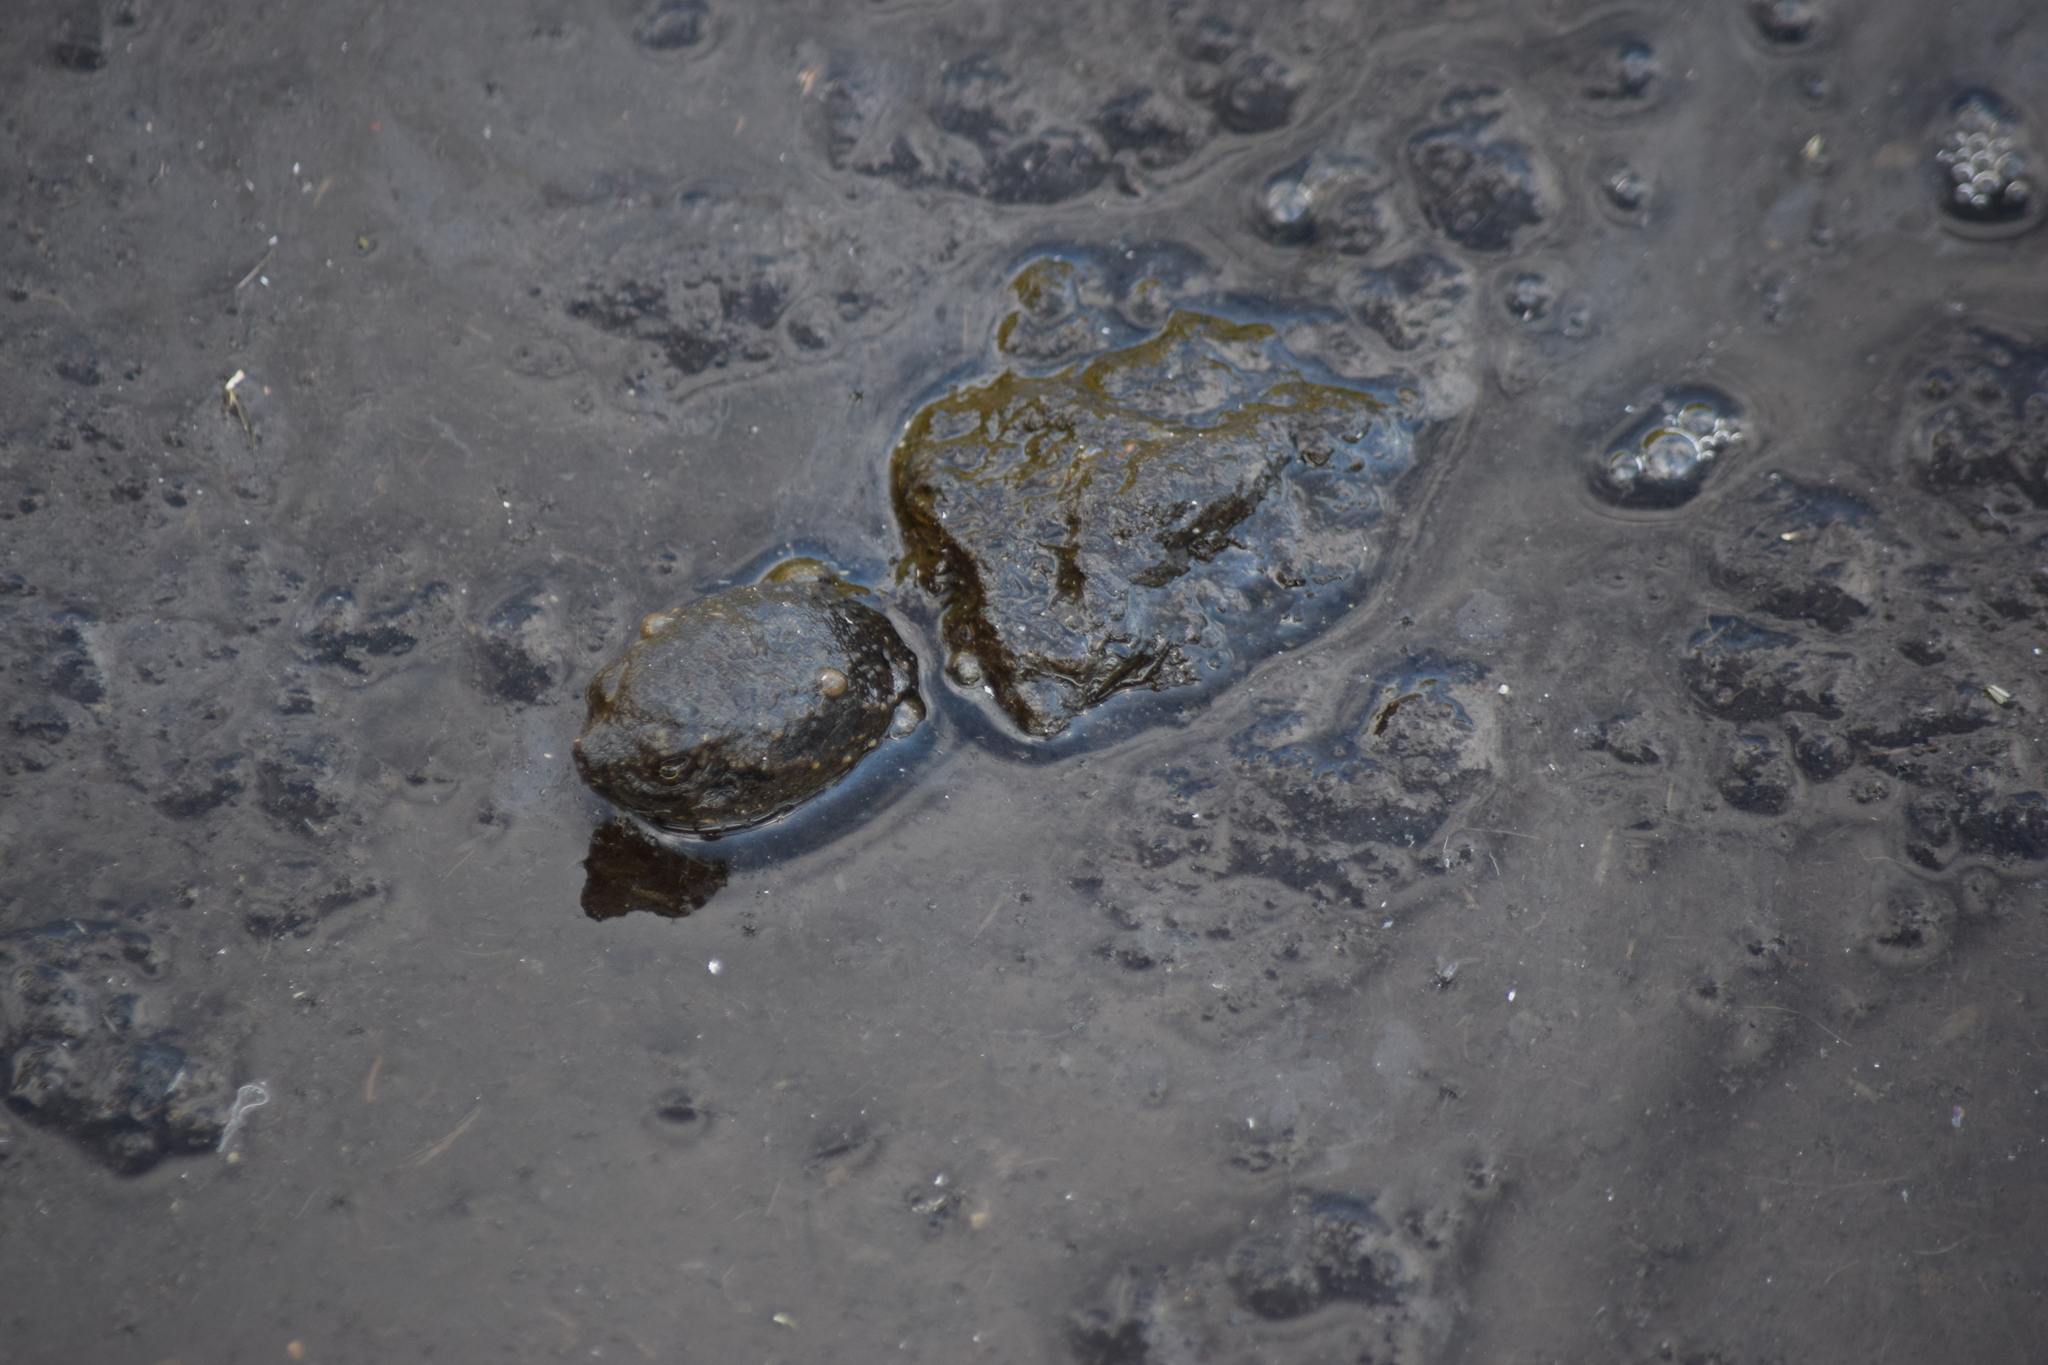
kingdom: Animalia
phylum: Chordata
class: Testudines
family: Chelydridae
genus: Chelydra
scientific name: Chelydra serpentina
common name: Common snapping turtle
